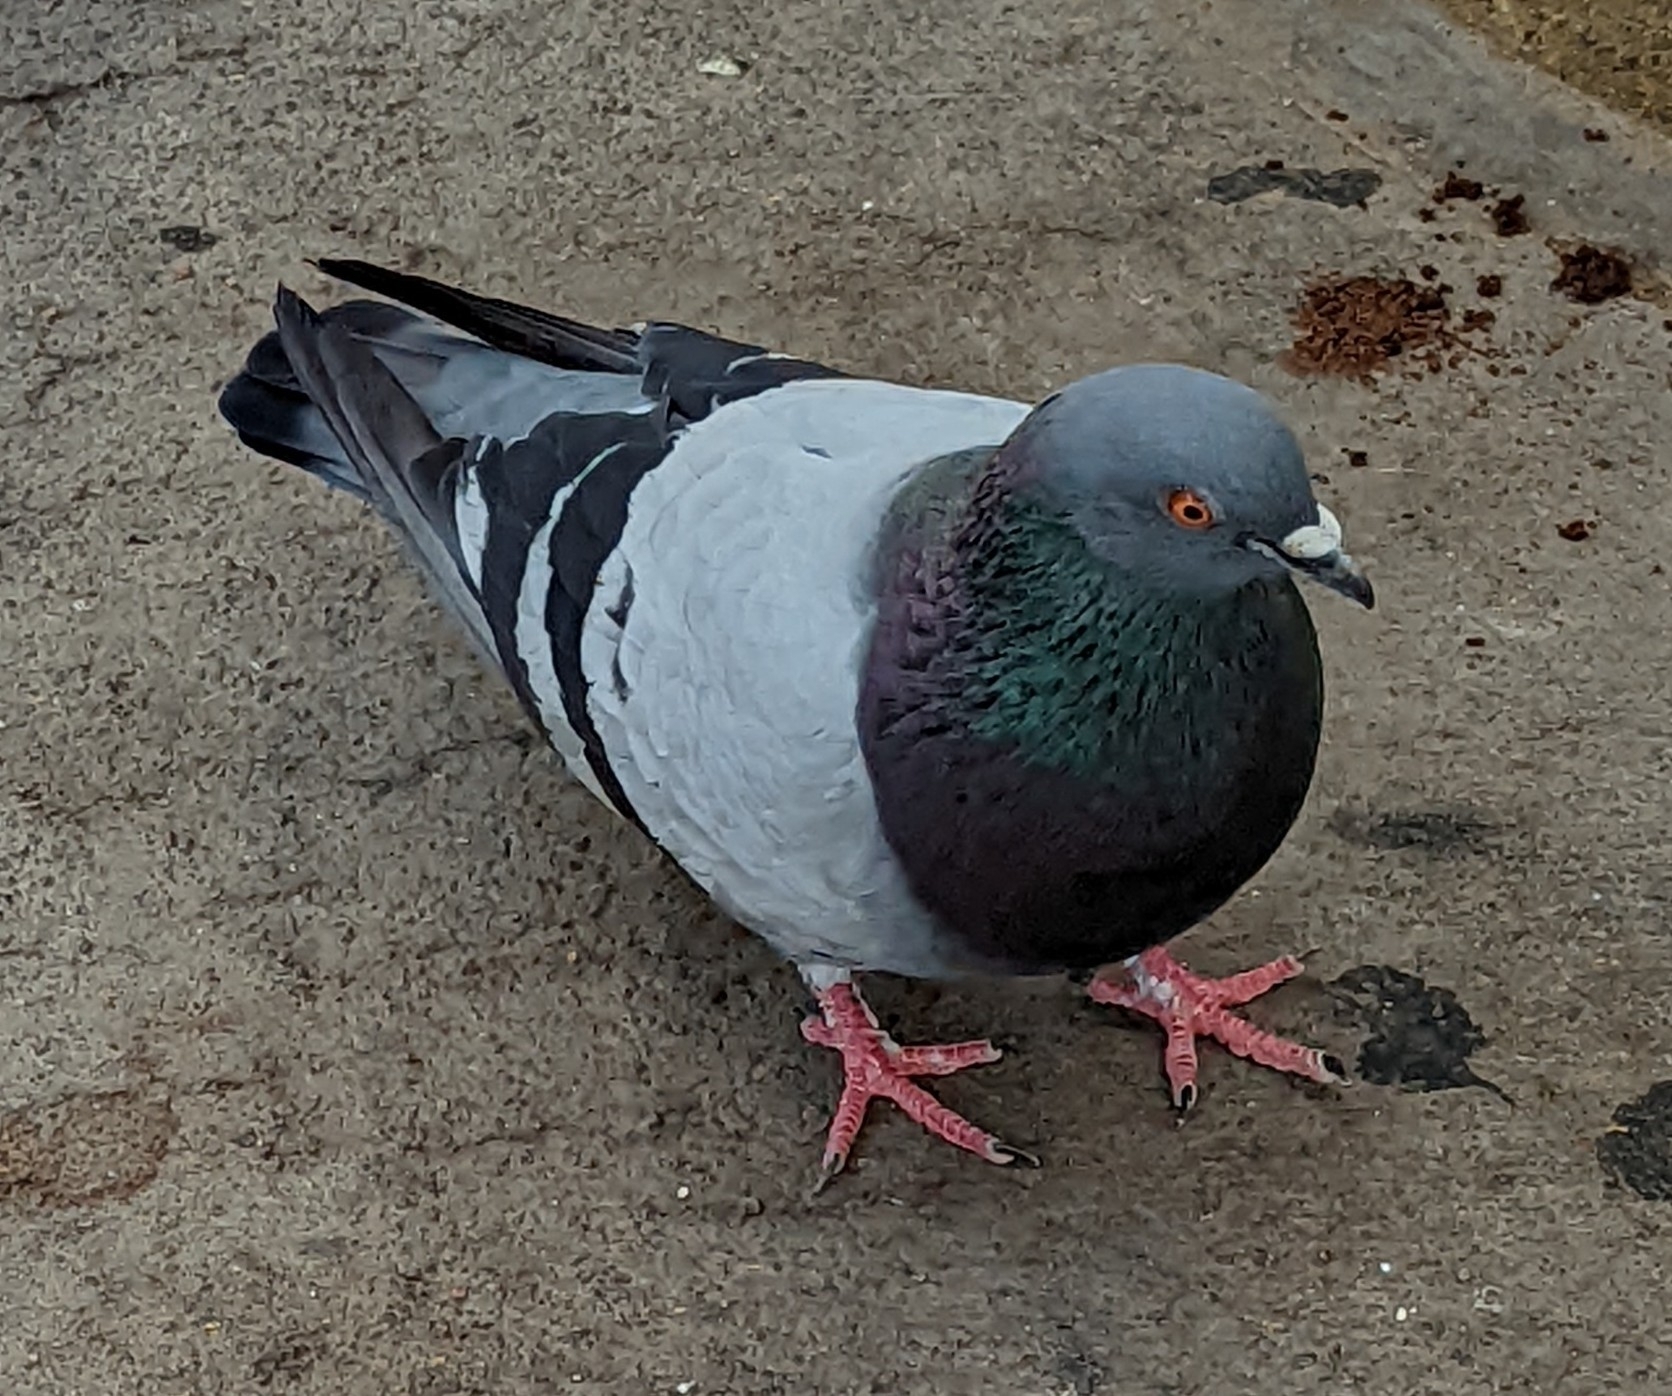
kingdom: Animalia
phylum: Chordata
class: Aves
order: Columbiformes
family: Columbidae
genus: Columba
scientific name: Columba livia
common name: Rock pigeon
